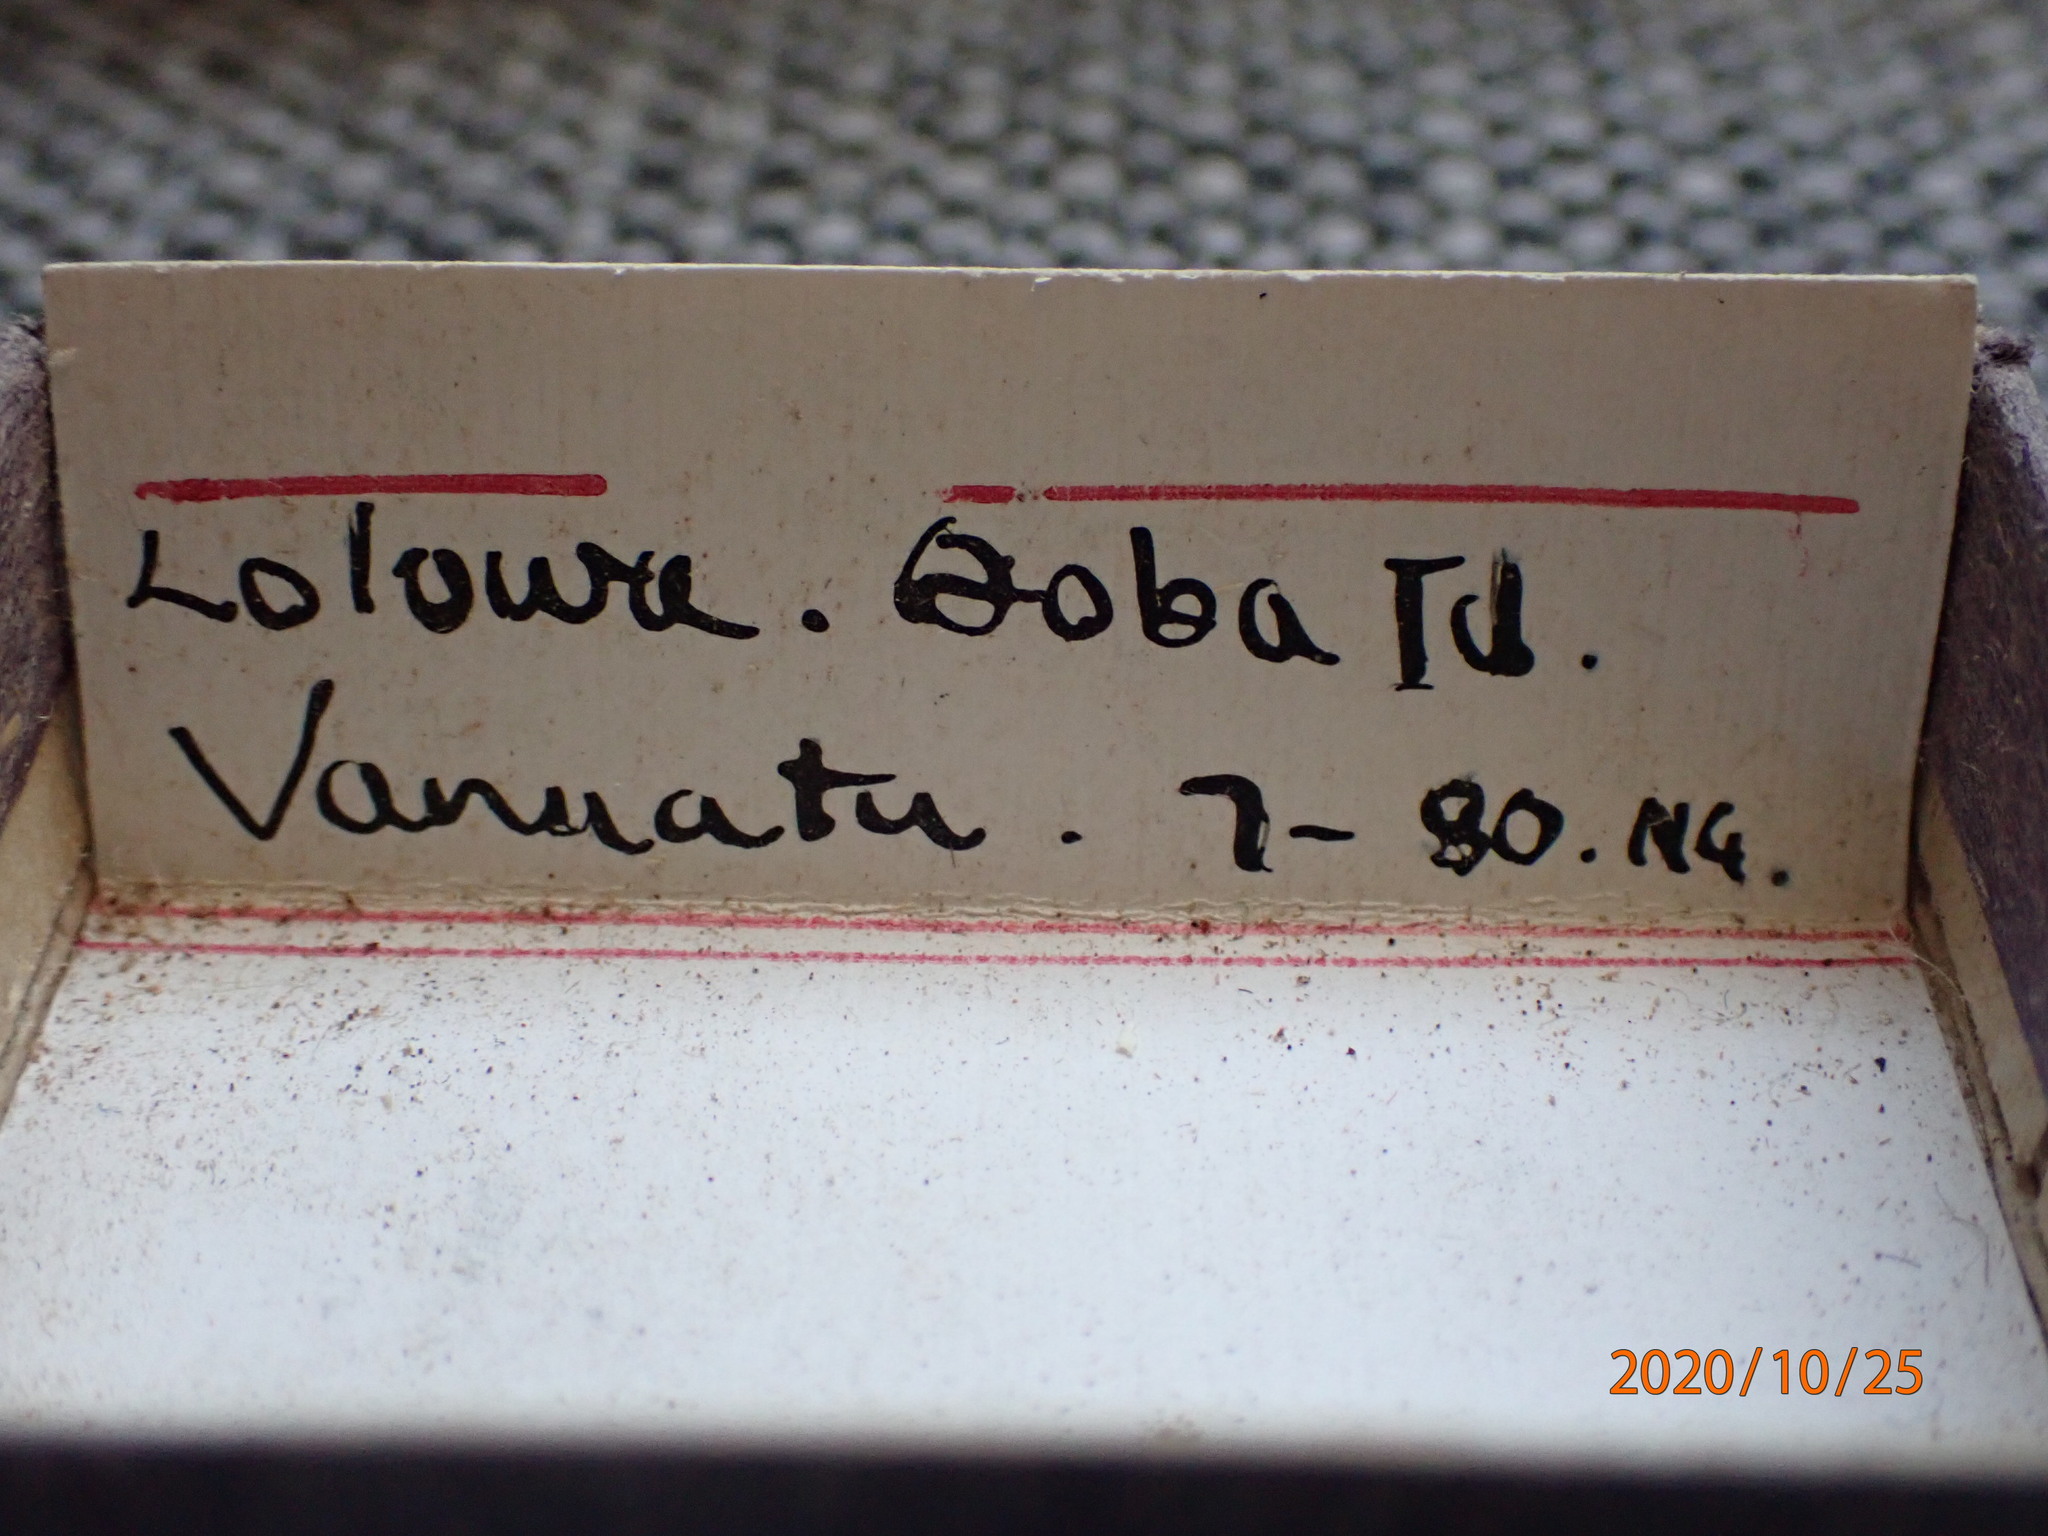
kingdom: Animalia
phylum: Mollusca
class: Bivalvia
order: Venerida
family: Veneridae
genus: Antigona
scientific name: Antigona chemnitzii
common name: Chemnitz's venus
